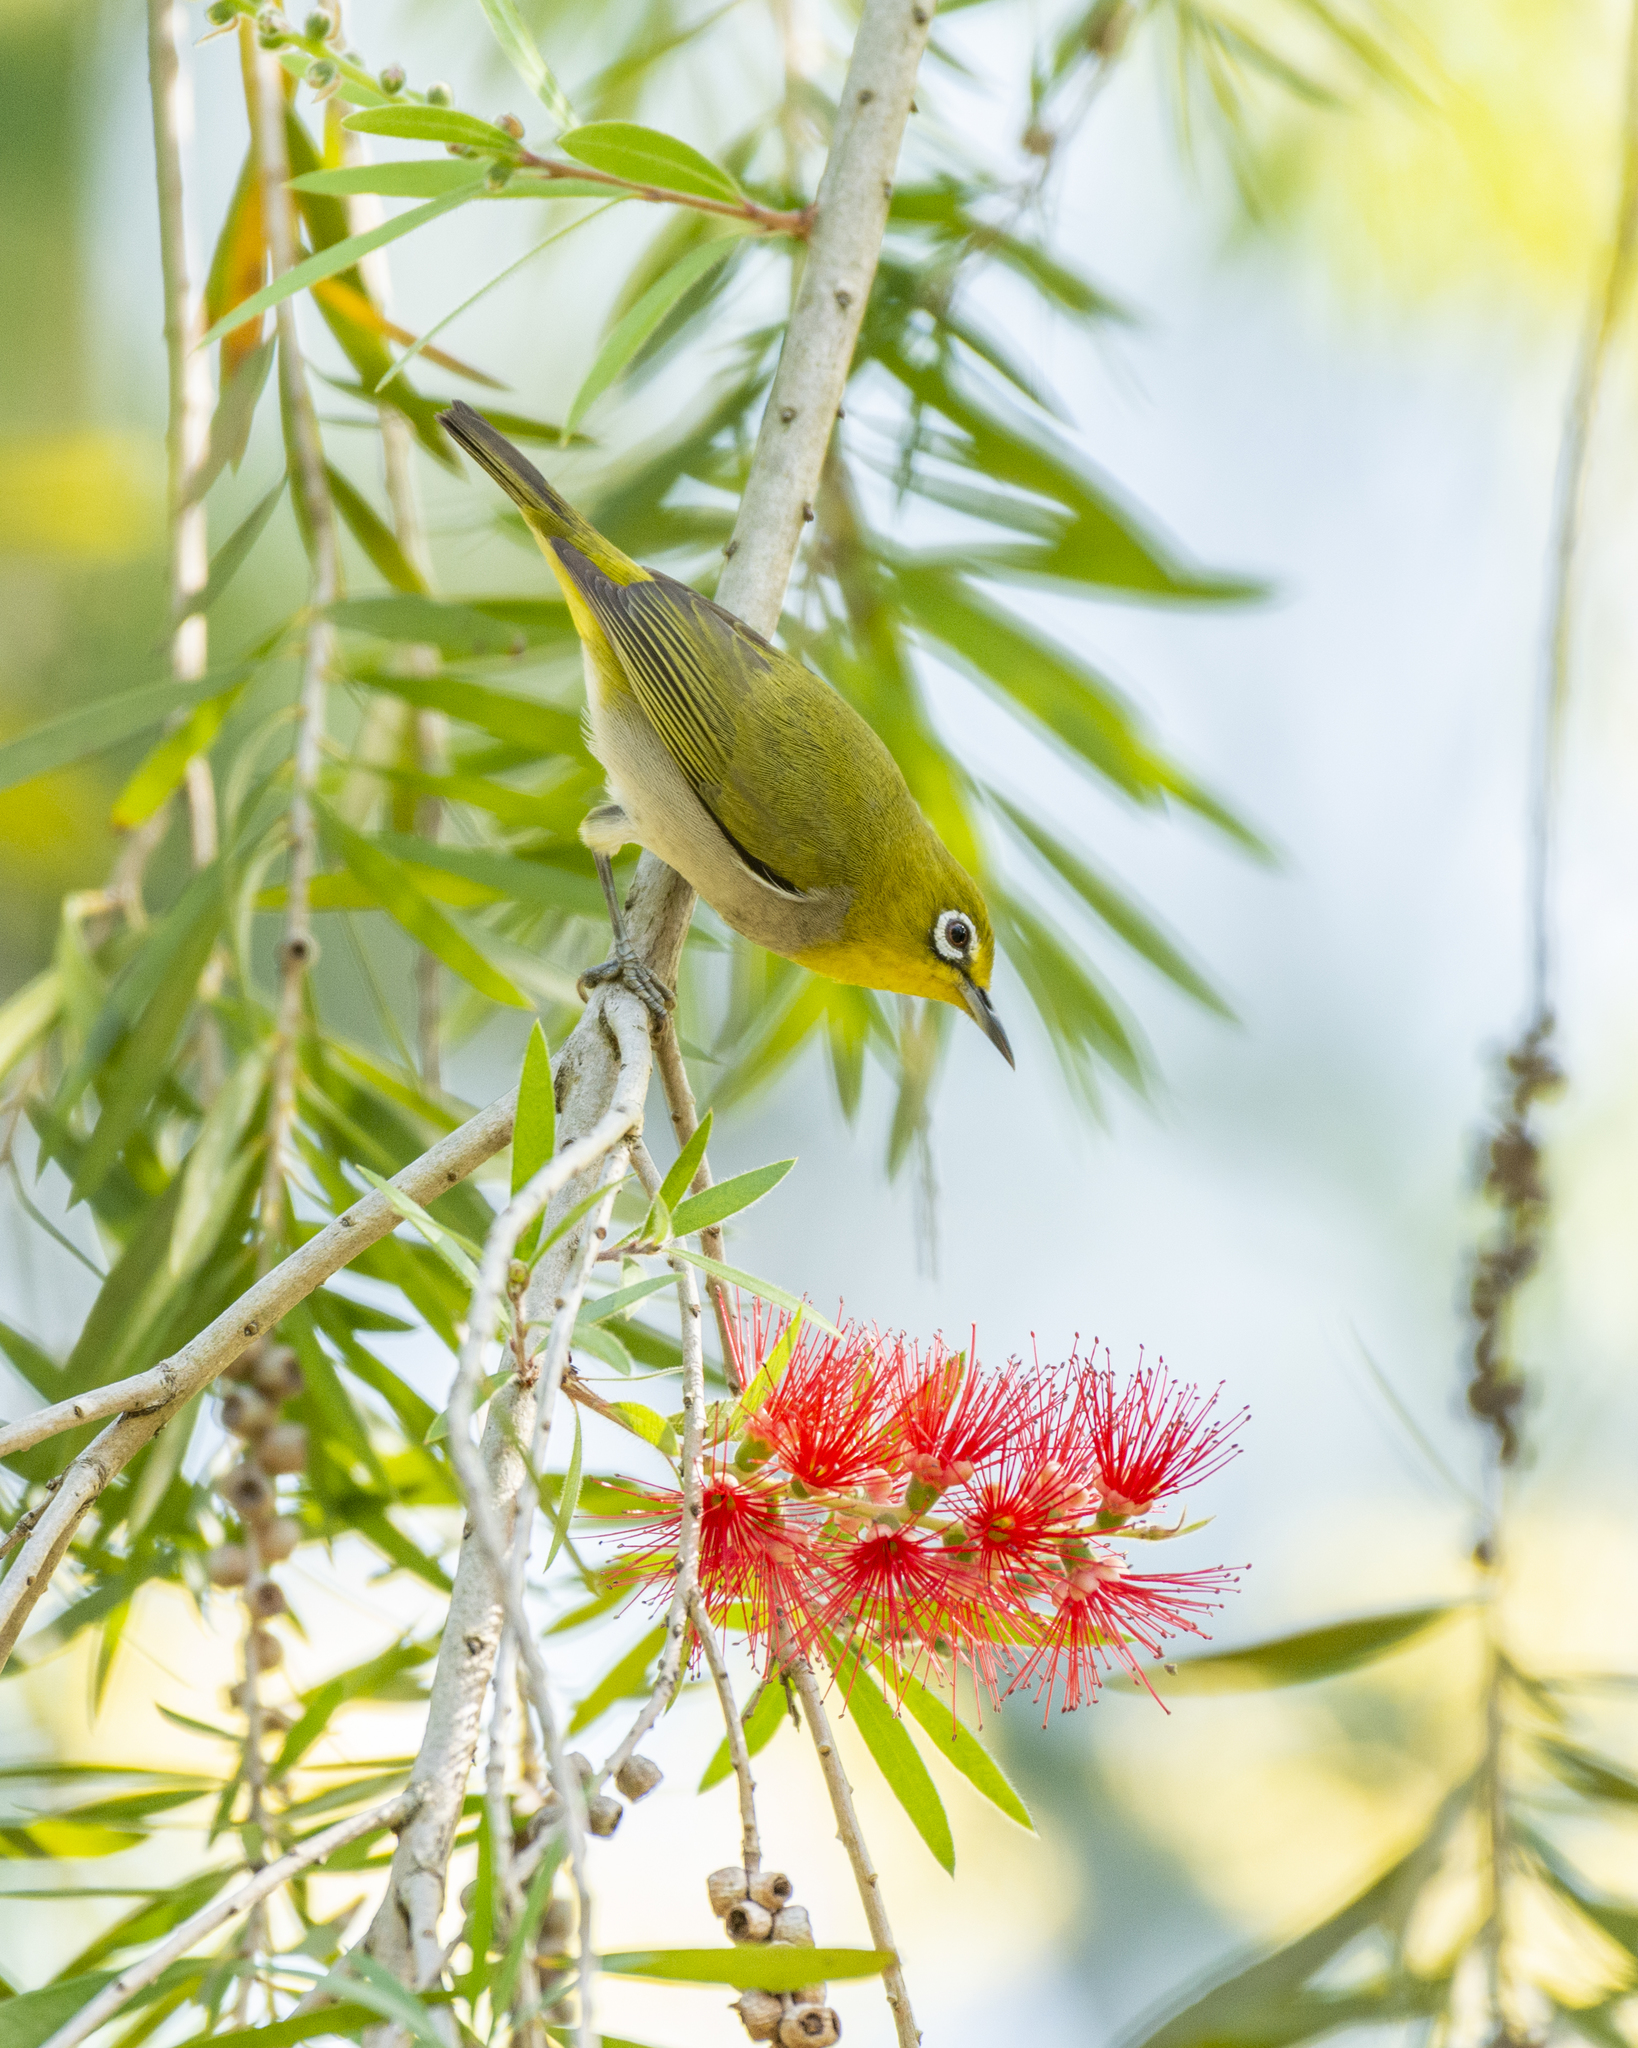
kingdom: Animalia
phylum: Chordata
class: Aves
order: Passeriformes
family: Zosteropidae
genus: Zosterops
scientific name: Zosterops simplex
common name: Swinhoe's white-eye
